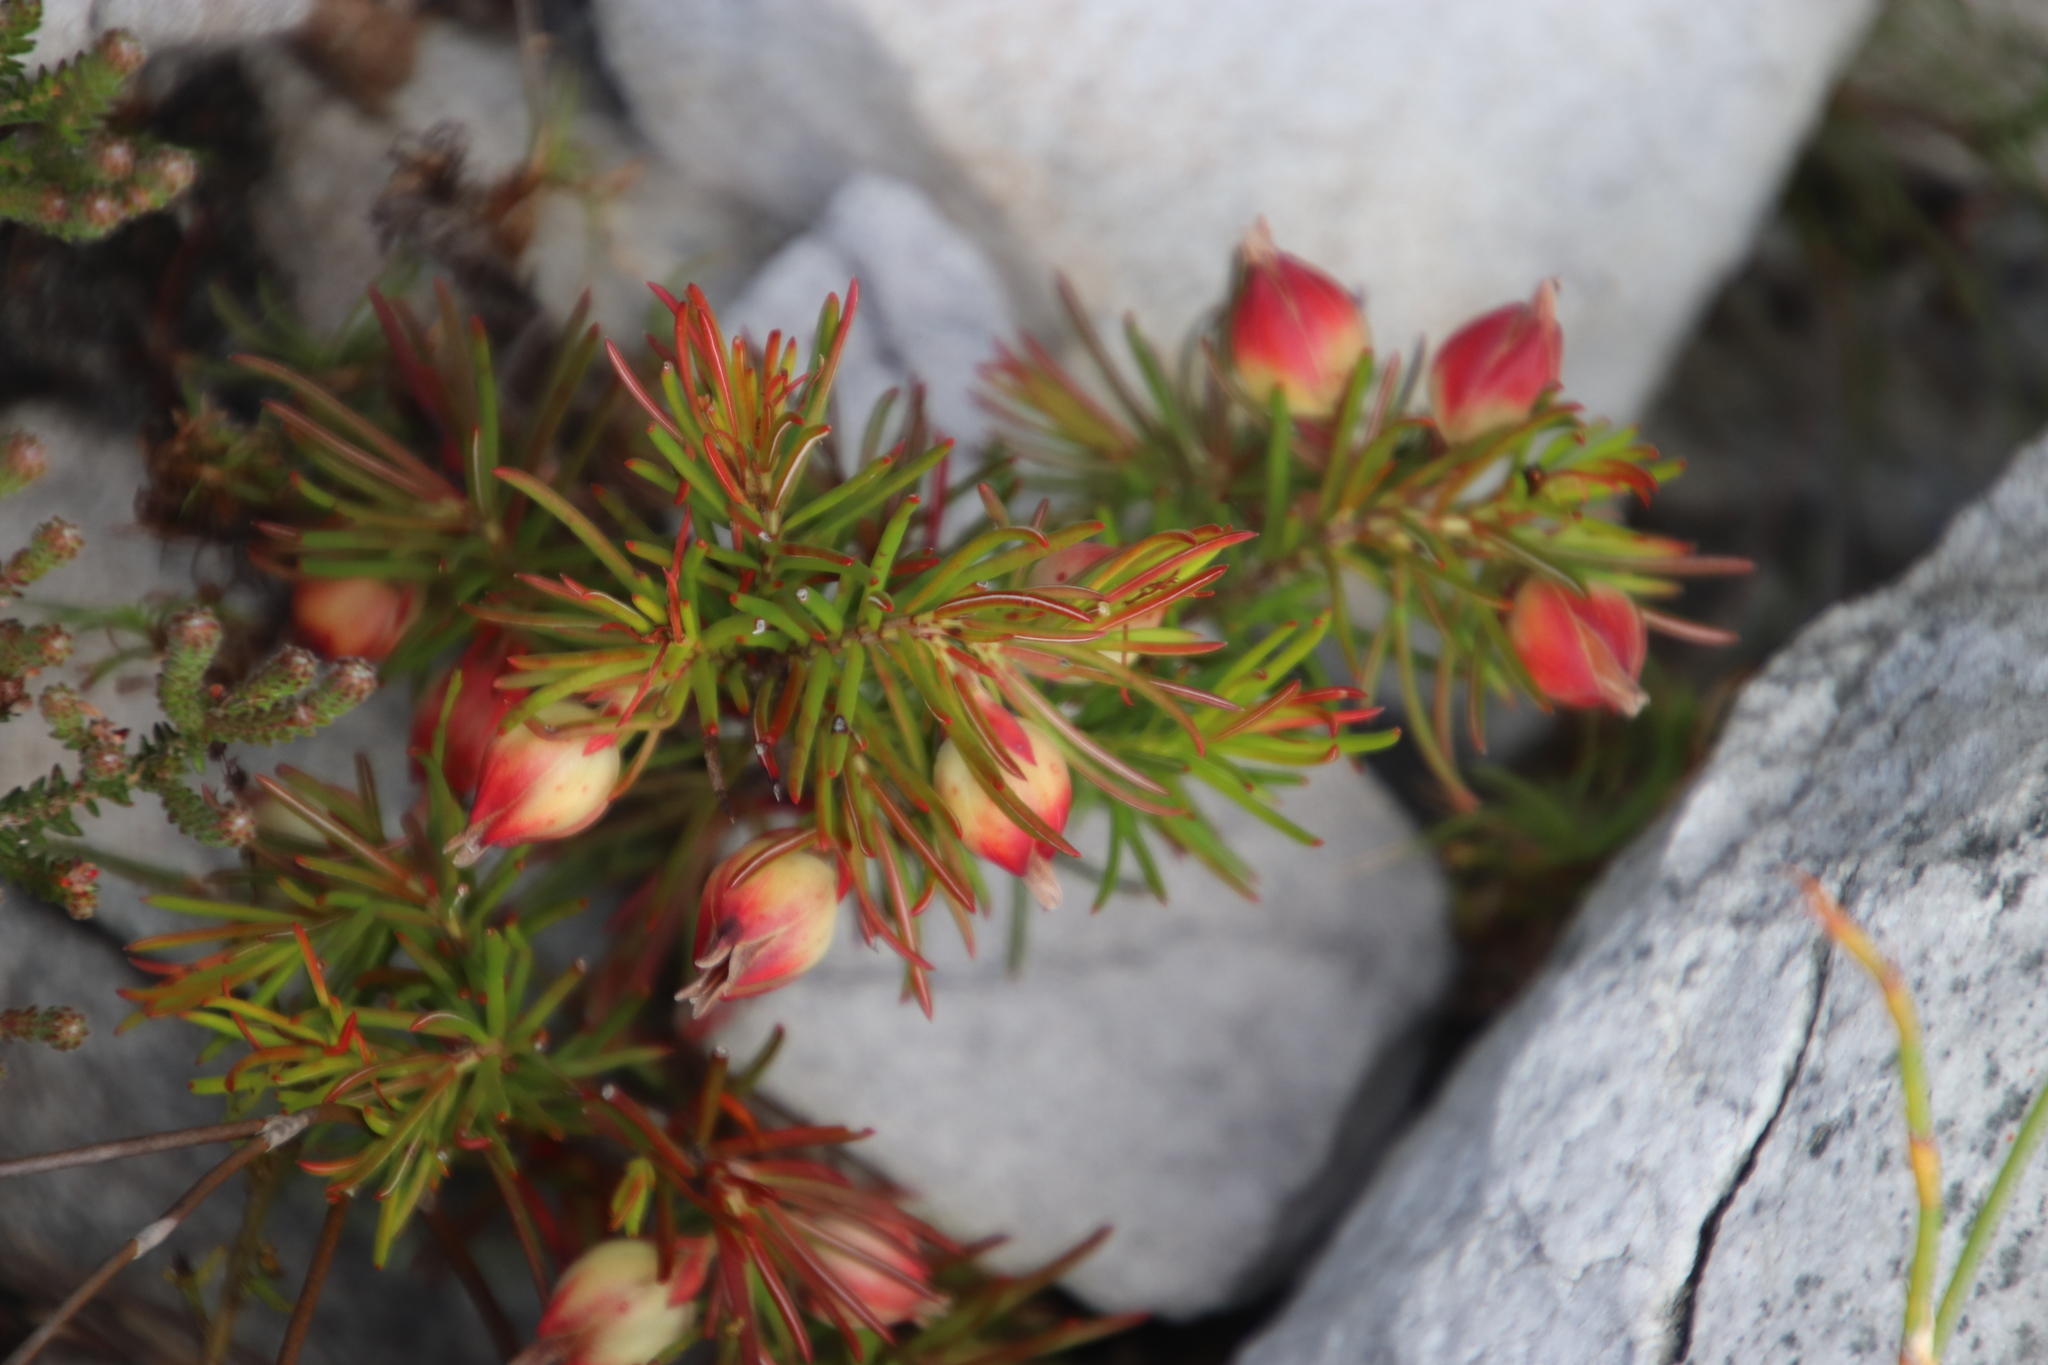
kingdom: Plantae
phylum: Tracheophyta
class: Magnoliopsida
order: Ericales
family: Ericaceae
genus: Erica
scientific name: Erica lanuginosa
